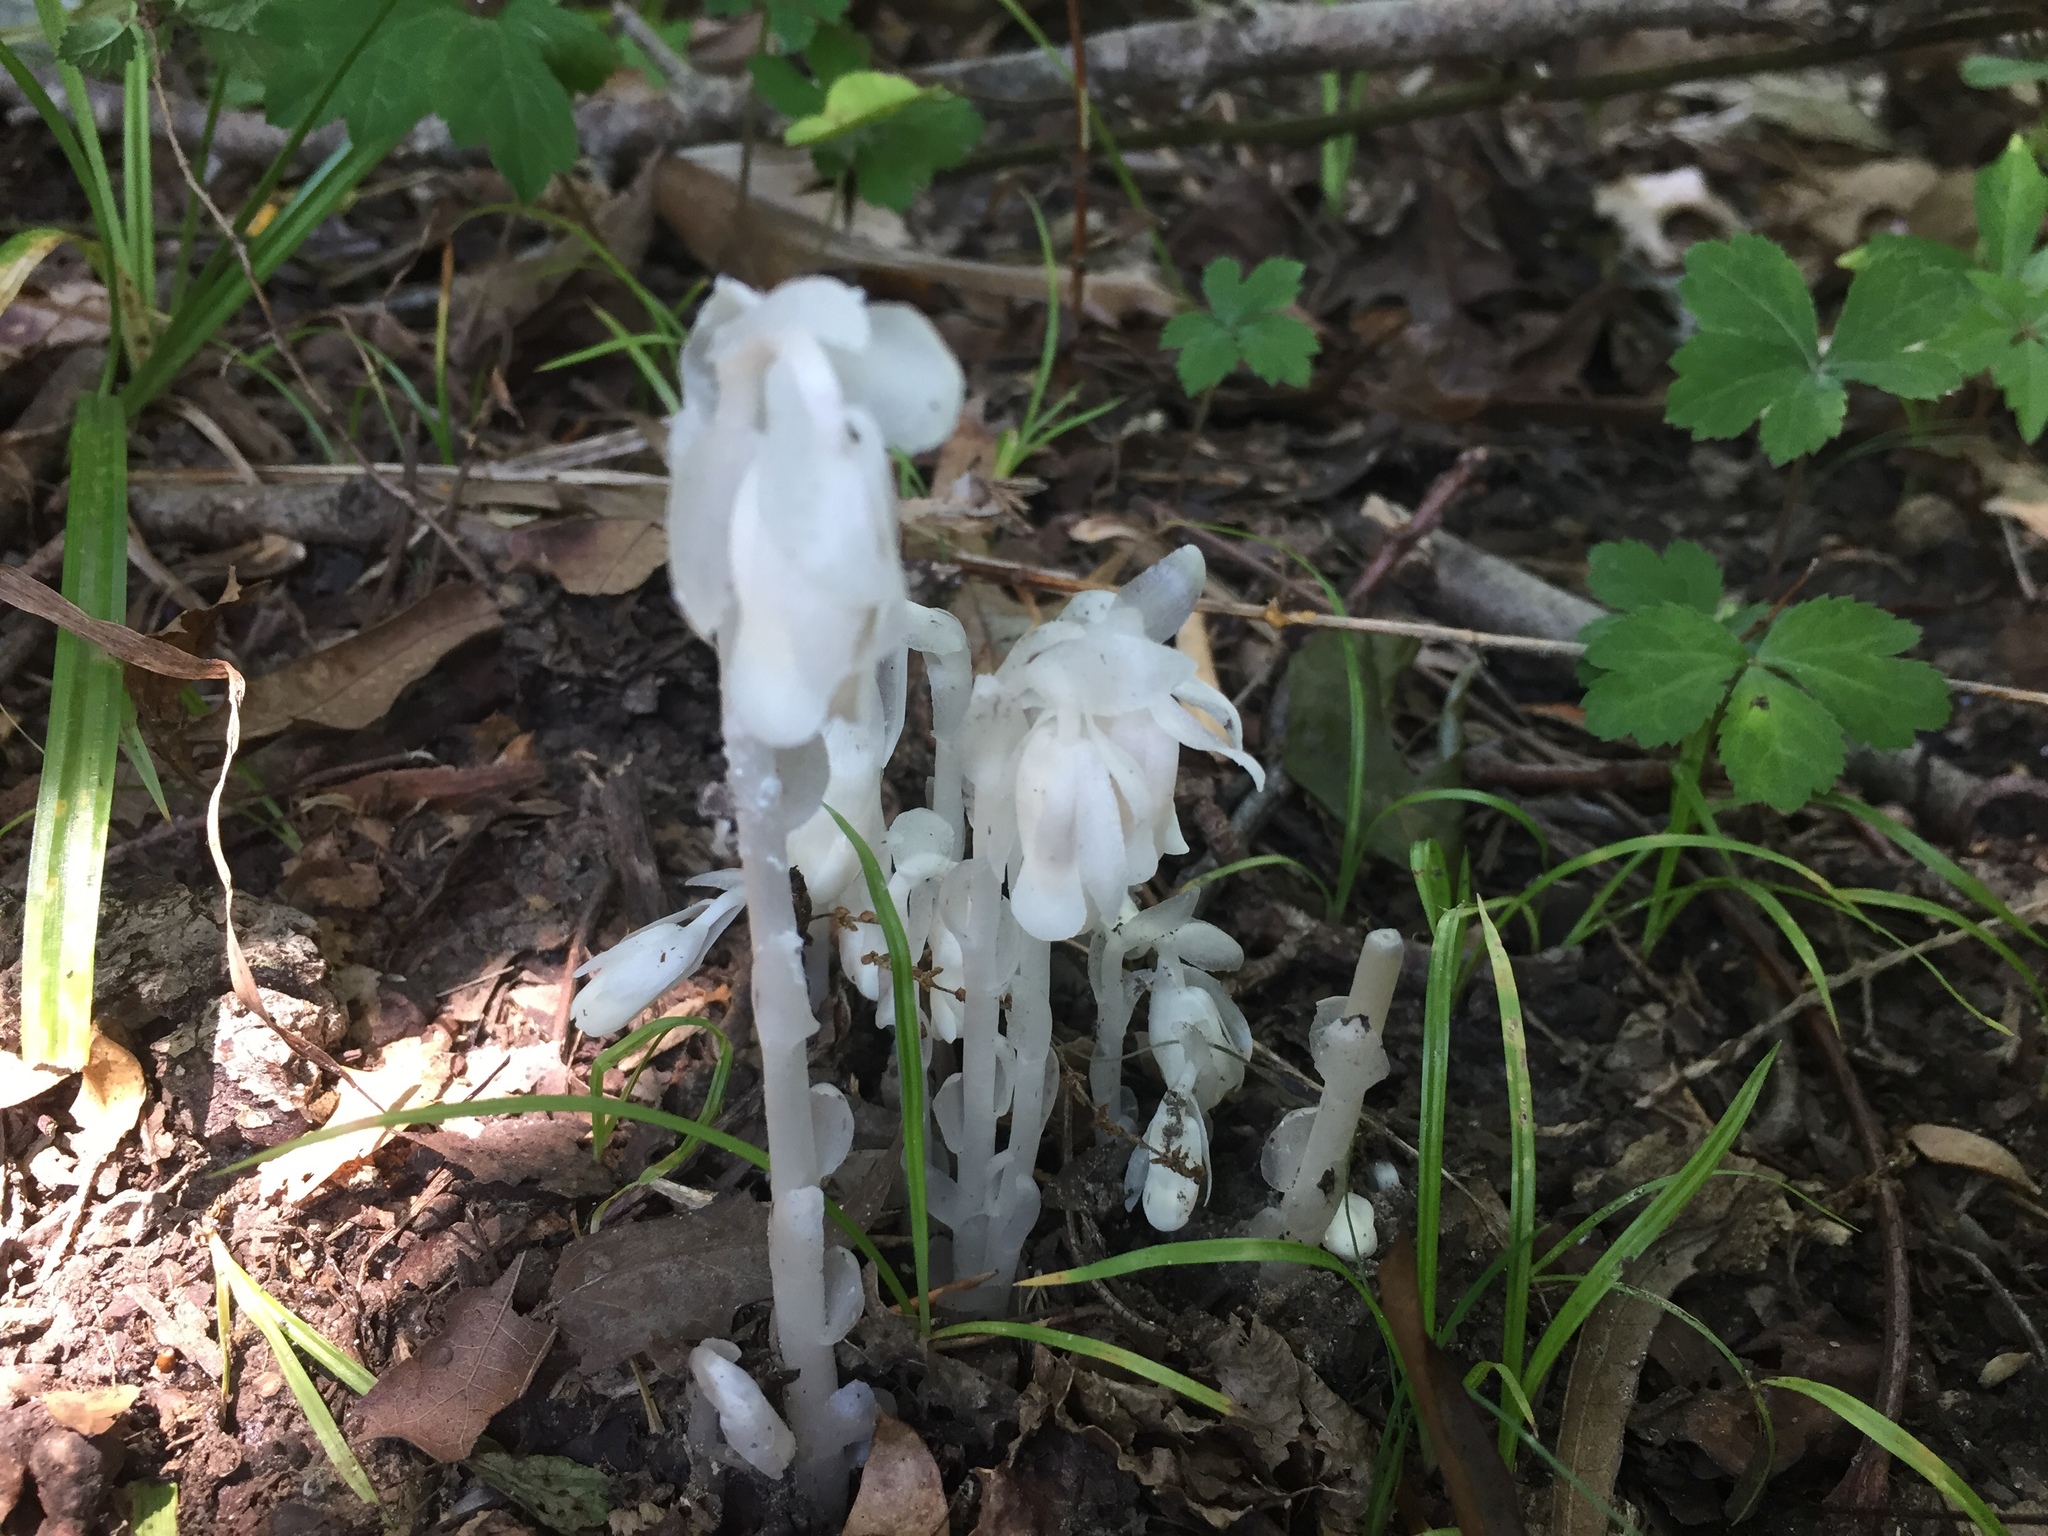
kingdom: Plantae
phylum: Tracheophyta
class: Magnoliopsida
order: Ericales
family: Ericaceae
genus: Monotropa
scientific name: Monotropa uniflora
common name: Convulsion root
